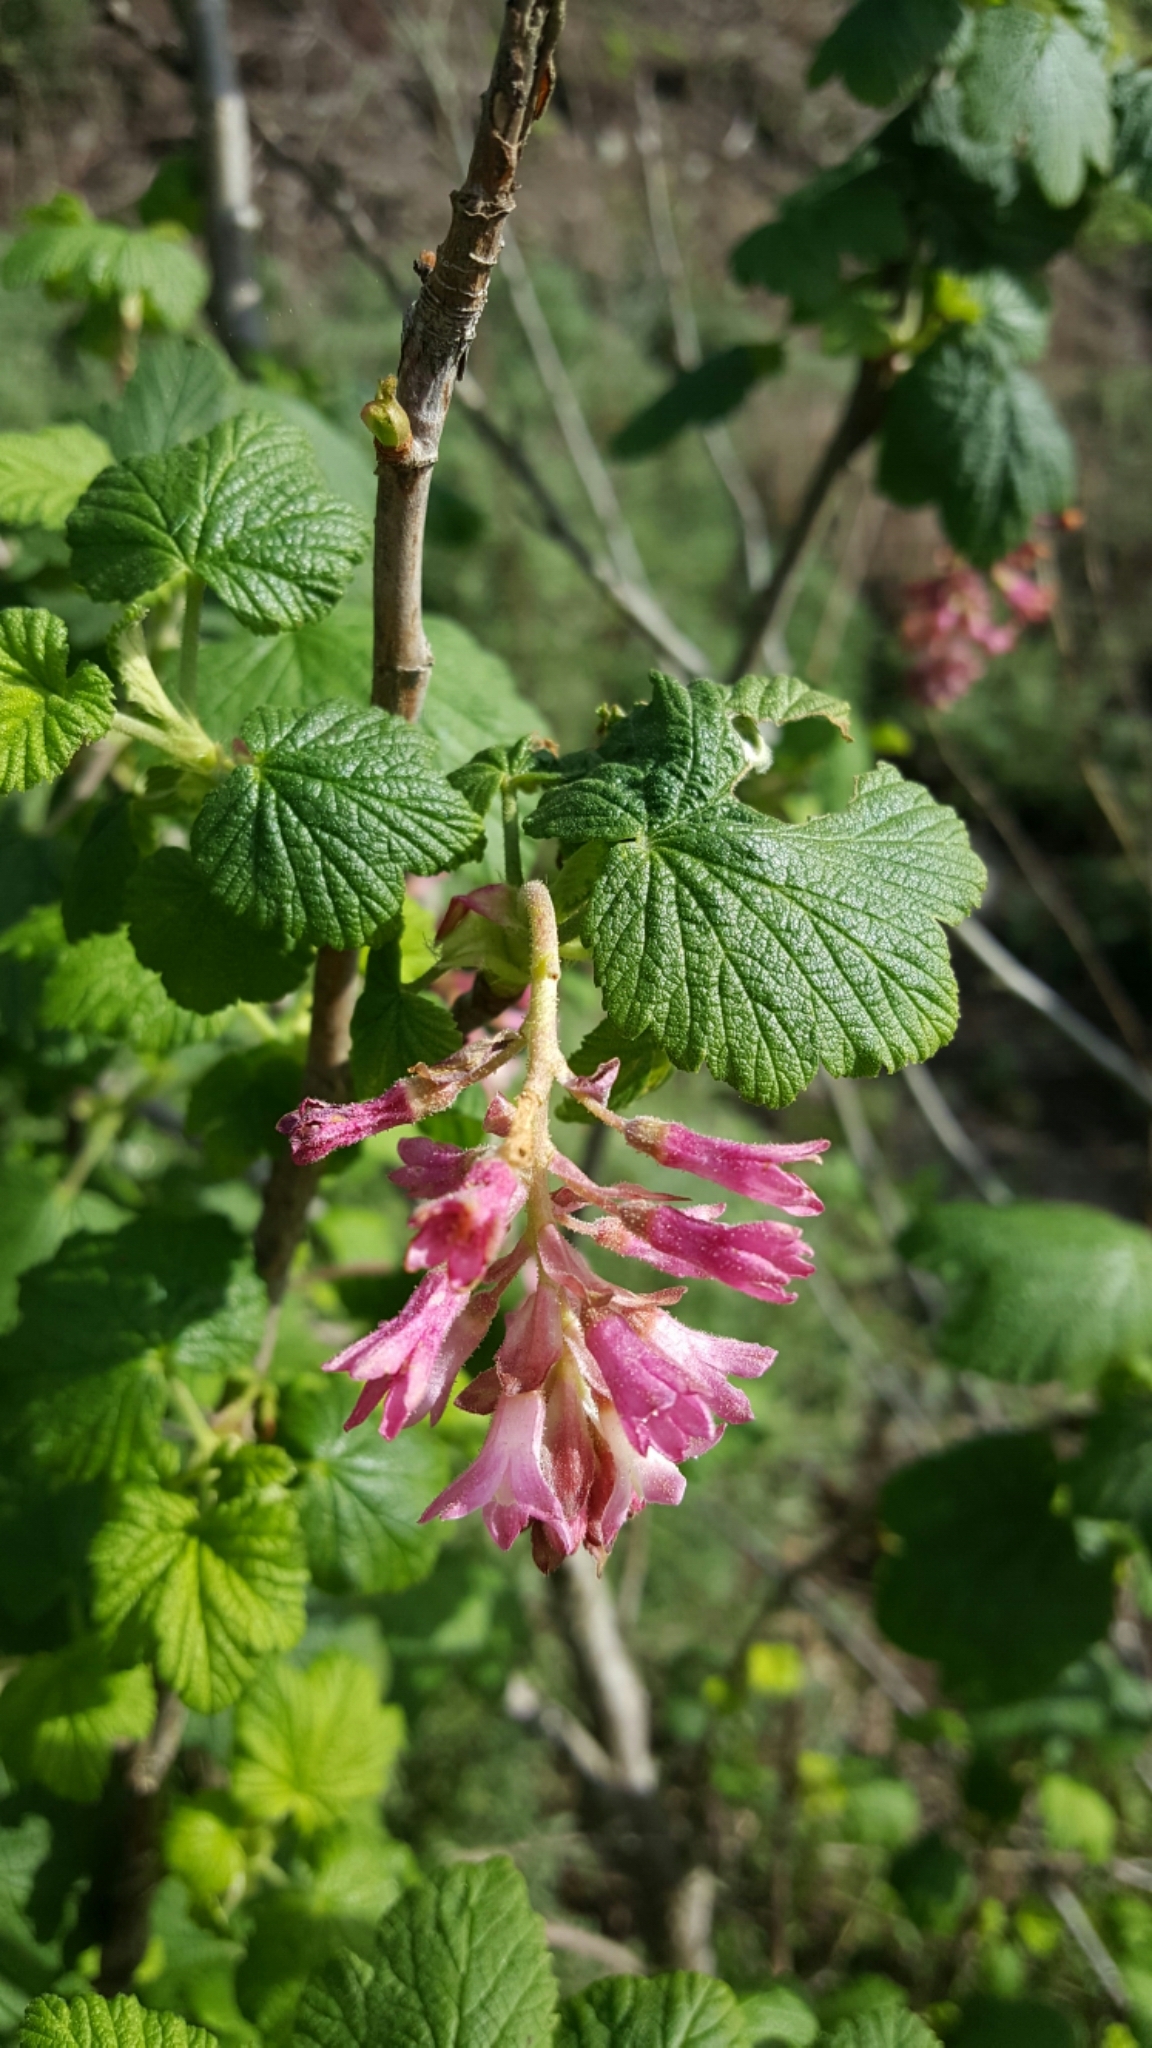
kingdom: Plantae
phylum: Tracheophyta
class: Magnoliopsida
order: Saxifragales
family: Grossulariaceae
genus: Ribes
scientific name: Ribes sanguineum
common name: Flowering currant
